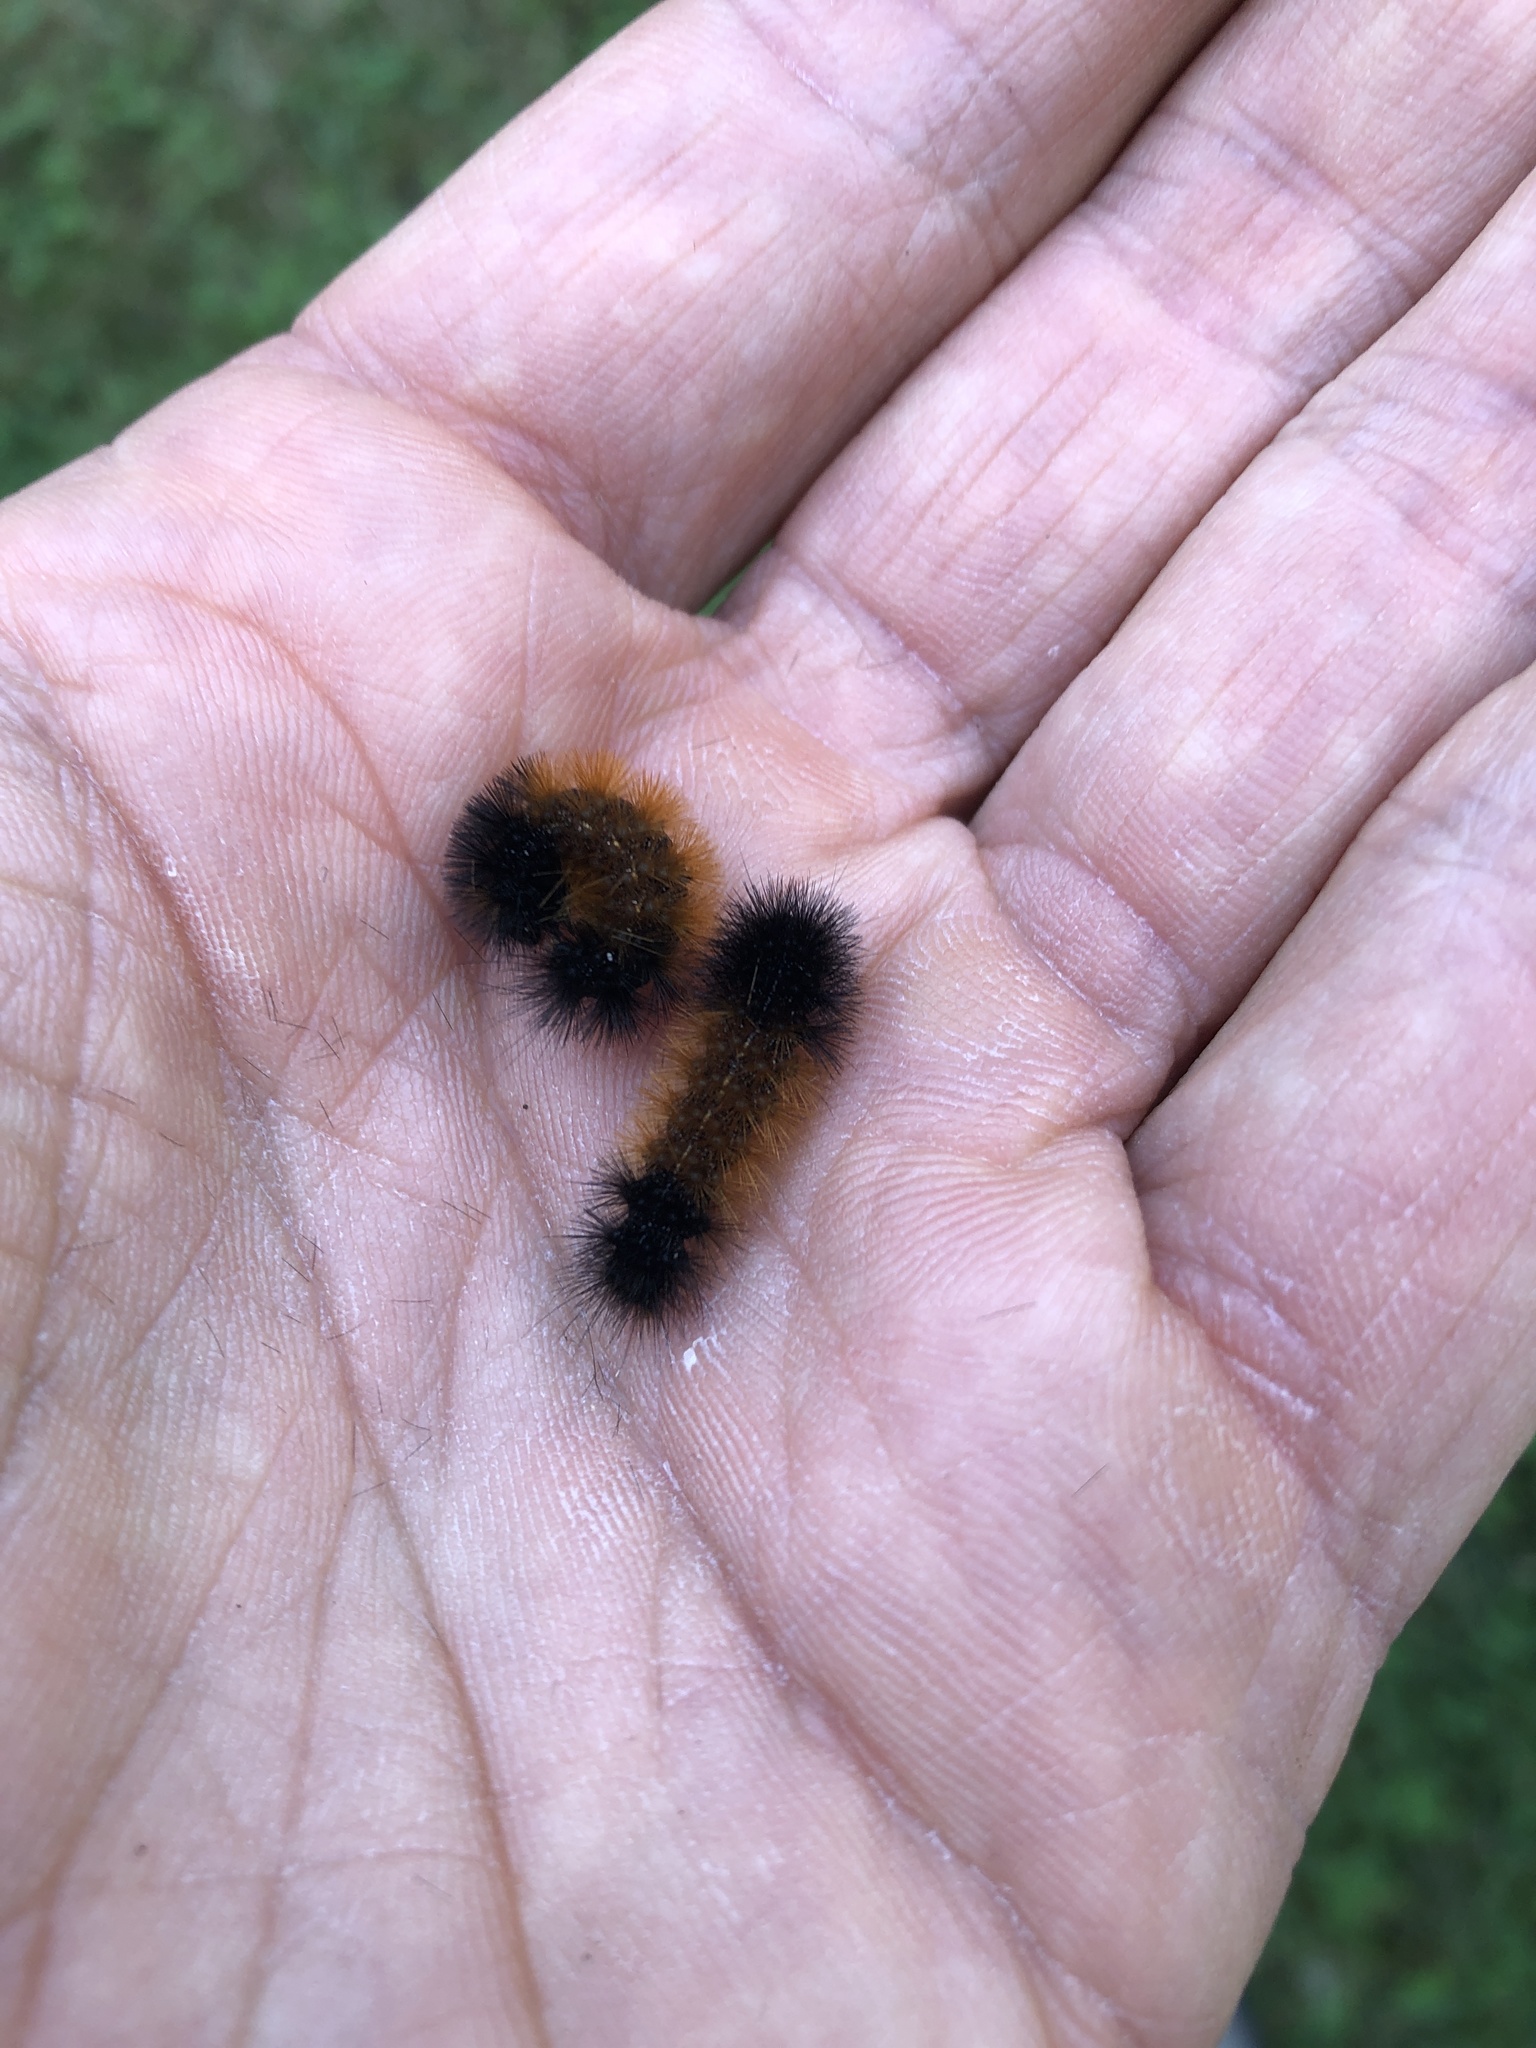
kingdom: Animalia
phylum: Arthropoda
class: Insecta
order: Lepidoptera
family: Erebidae
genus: Pyrrharctia
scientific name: Pyrrharctia isabella
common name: Isabella tiger moth
